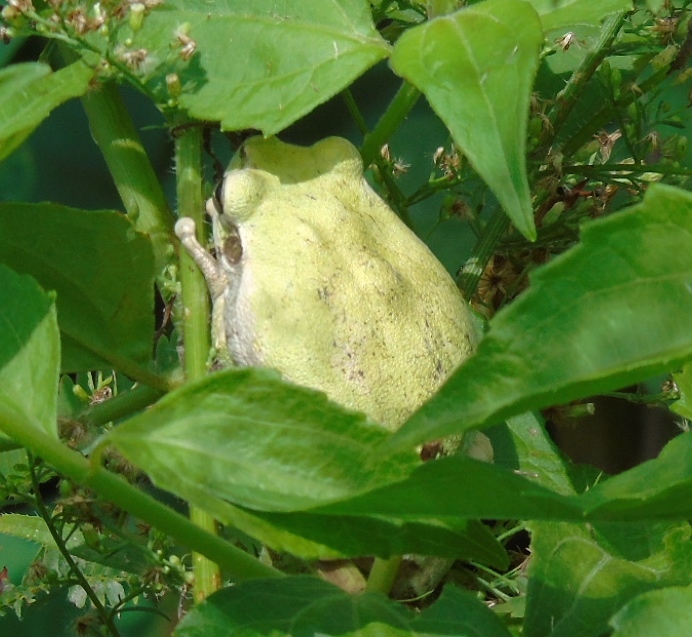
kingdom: Animalia
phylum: Chordata
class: Amphibia
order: Anura
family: Hylidae
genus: Smilisca
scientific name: Smilisca baudinii
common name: Mexican smilisca
